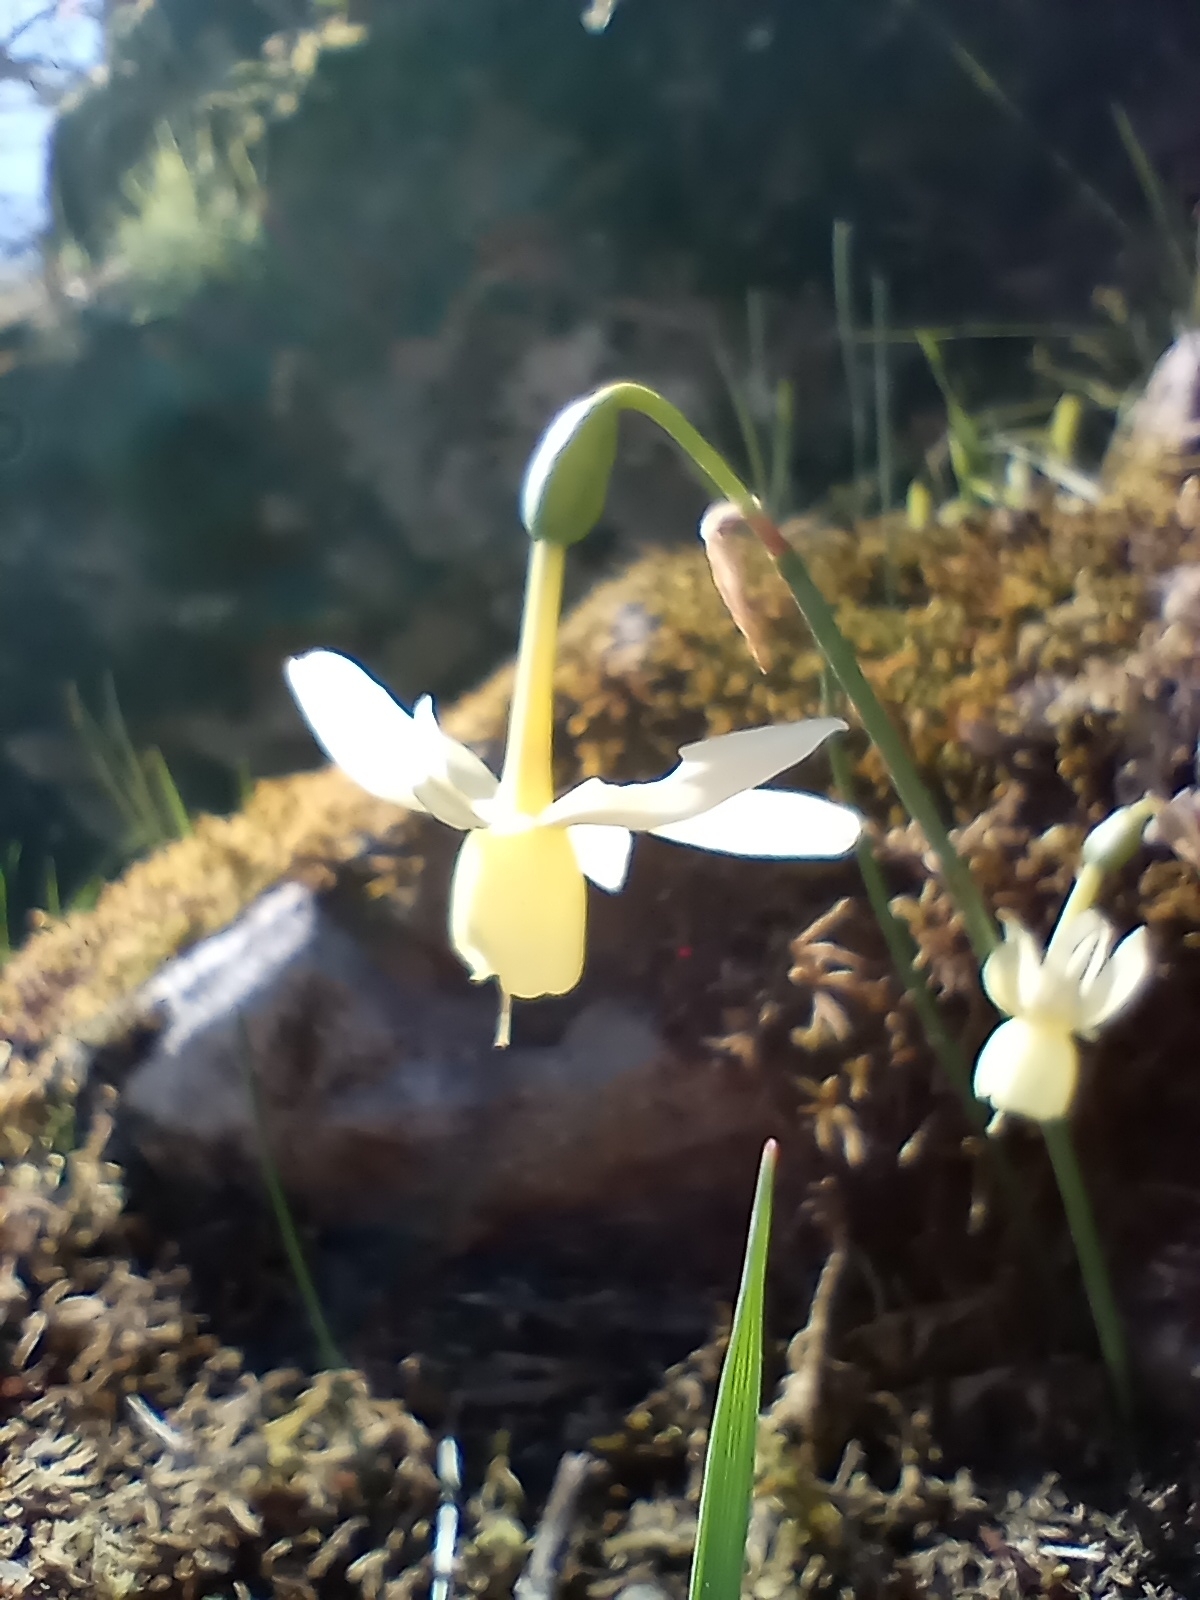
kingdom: Plantae
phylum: Tracheophyta
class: Liliopsida
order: Asparagales
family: Amaryllidaceae
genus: Narcissus
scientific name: Narcissus triandrus
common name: Angel's-tears
